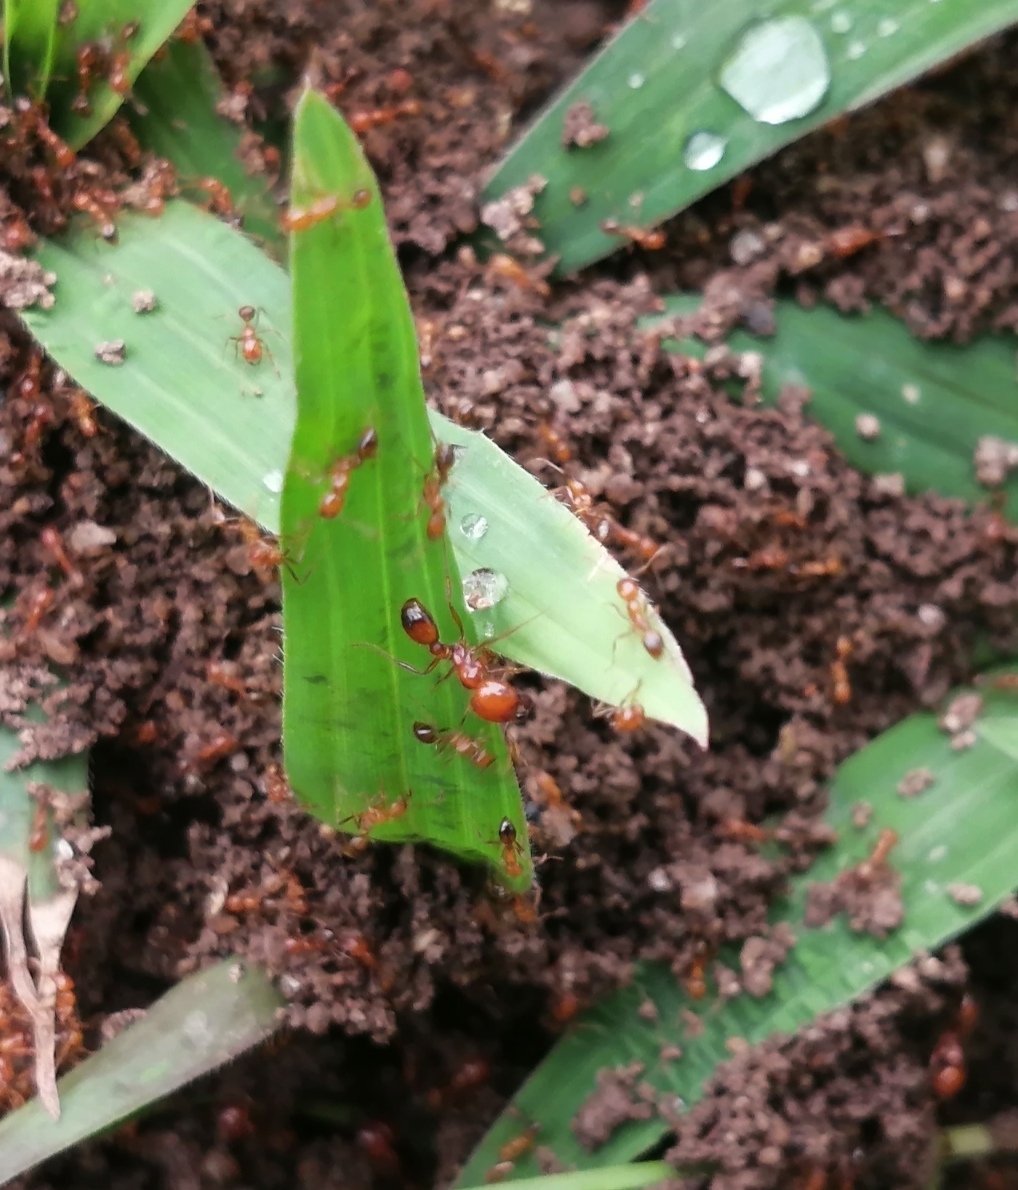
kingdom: Animalia
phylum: Arthropoda
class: Insecta
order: Hymenoptera
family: Formicidae
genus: Solenopsis
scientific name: Solenopsis geminata
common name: Tropical fire ant
